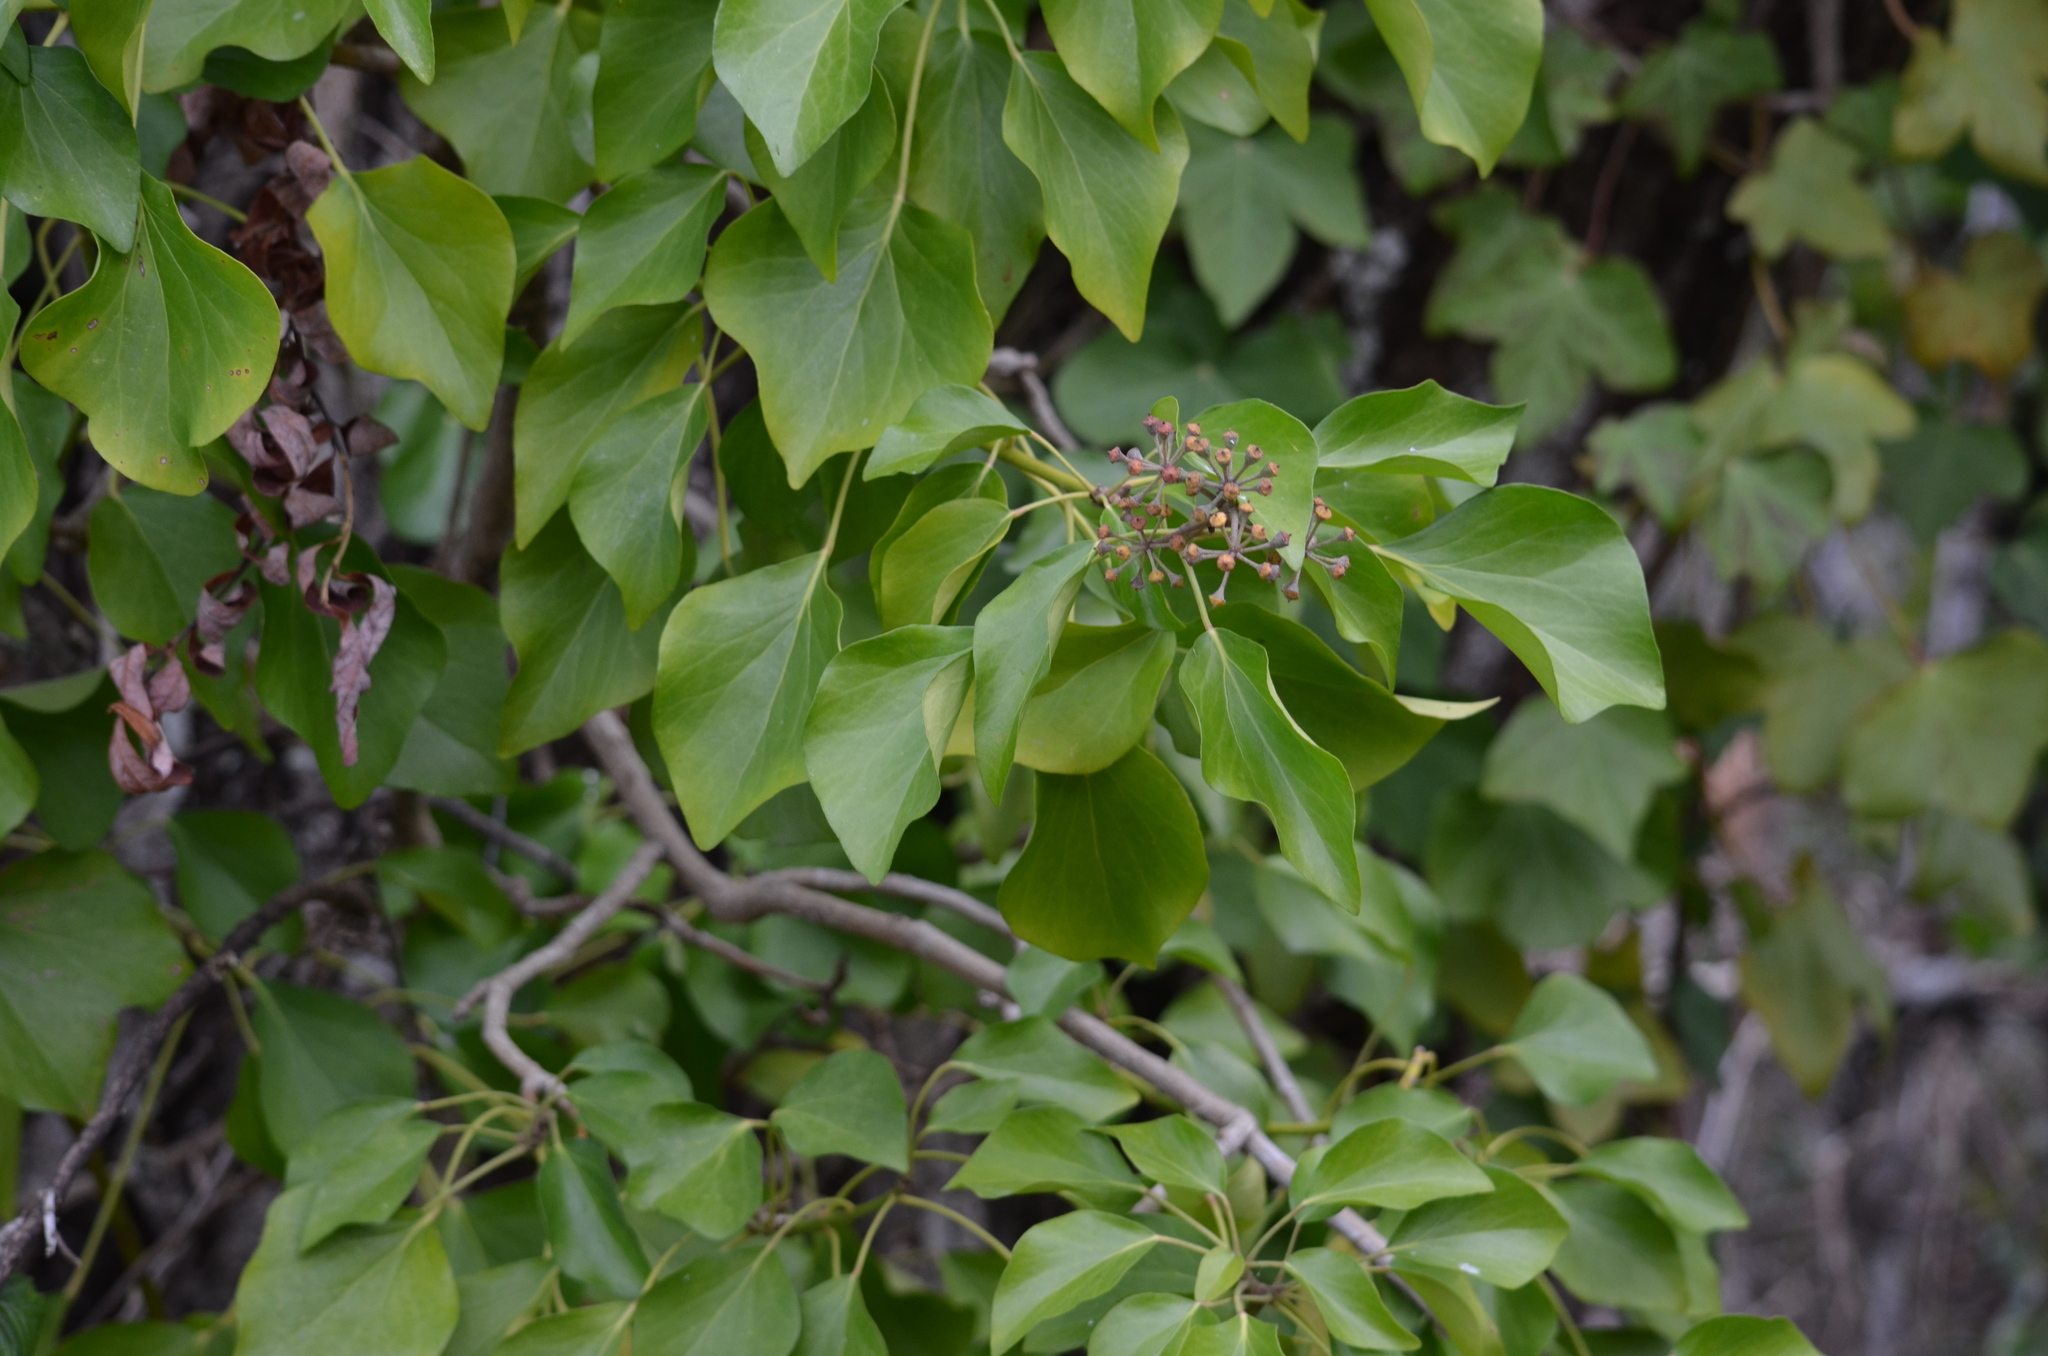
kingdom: Plantae
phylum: Tracheophyta
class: Magnoliopsida
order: Apiales
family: Araliaceae
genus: Hedera
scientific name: Hedera helix
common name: Ivy
